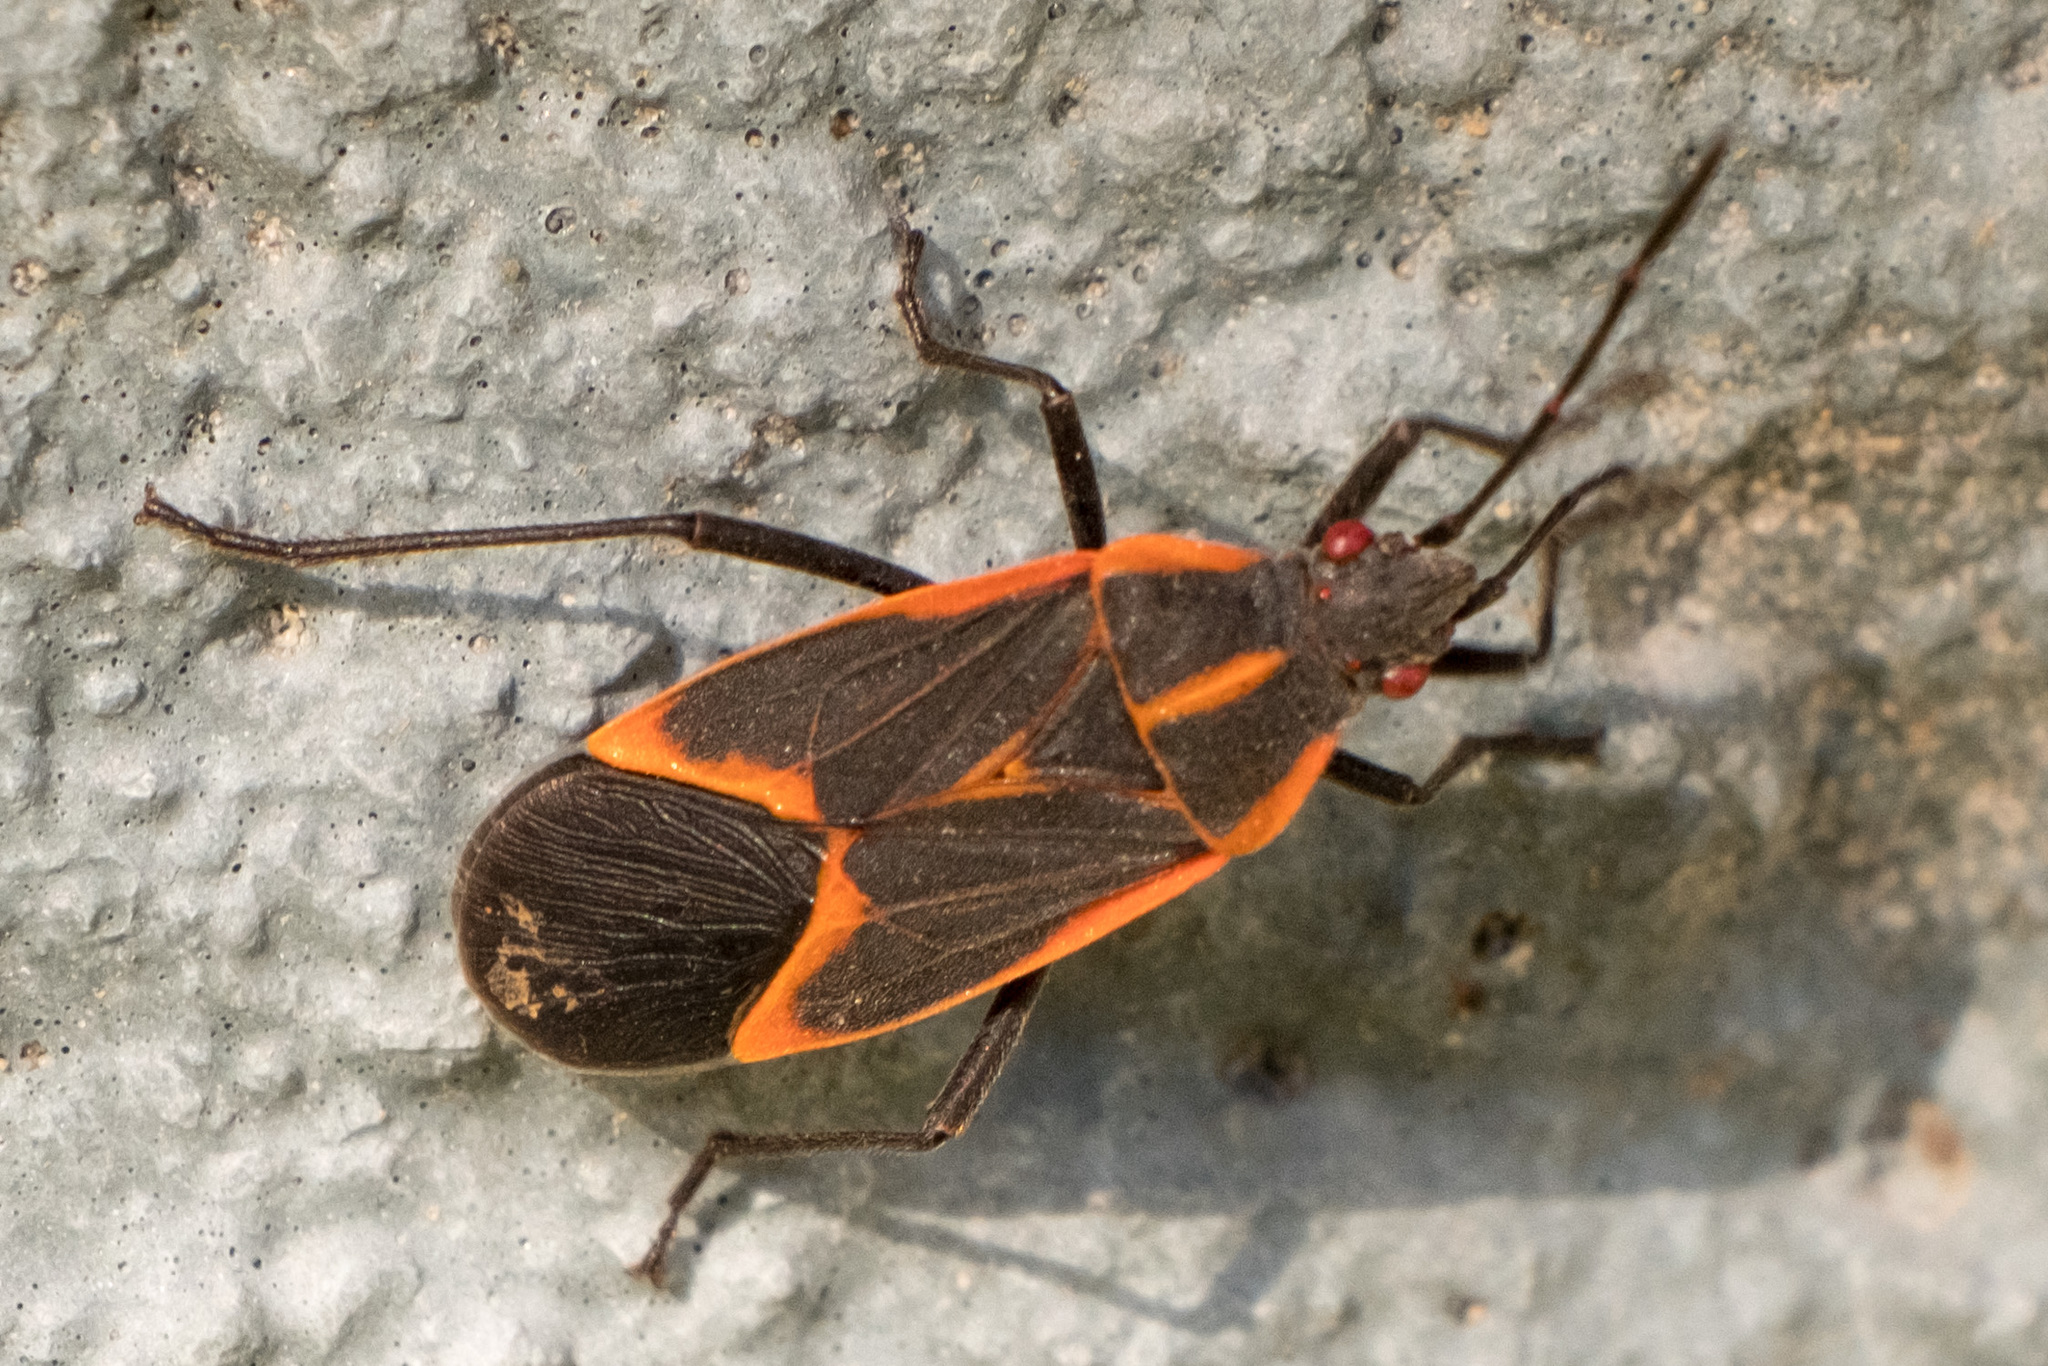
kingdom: Animalia
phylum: Arthropoda
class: Insecta
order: Hemiptera
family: Rhopalidae
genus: Boisea
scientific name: Boisea trivittata
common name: Boxelder bug
